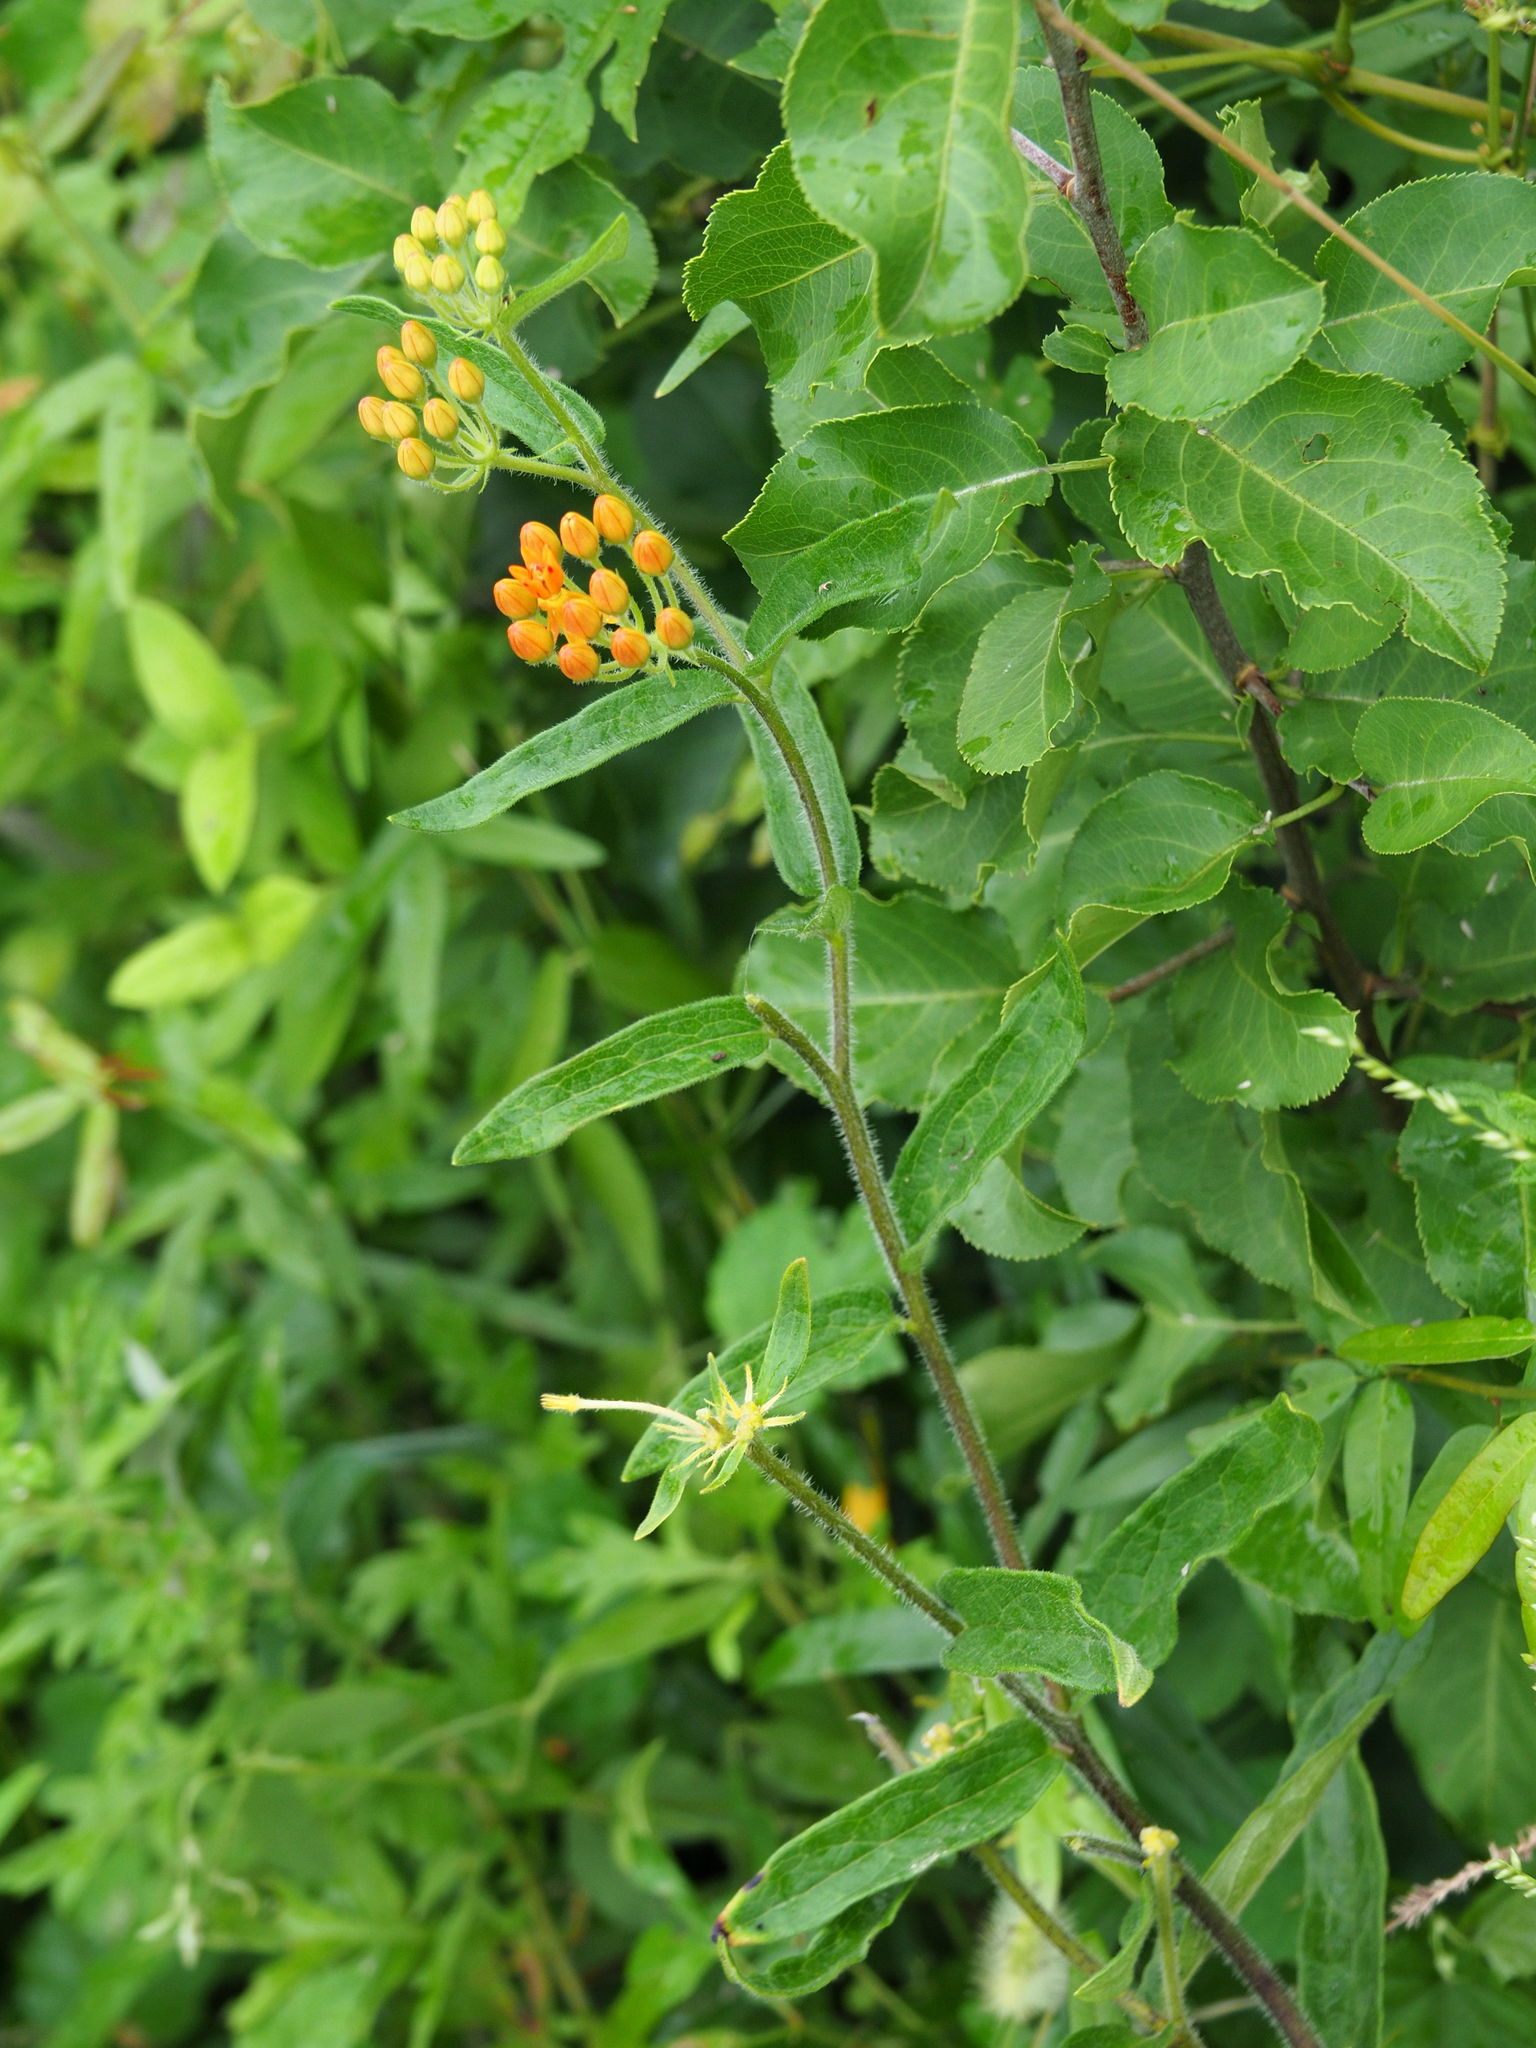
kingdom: Plantae
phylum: Tracheophyta
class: Magnoliopsida
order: Gentianales
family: Apocynaceae
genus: Asclepias
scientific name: Asclepias tuberosa
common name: Butterfly milkweed
